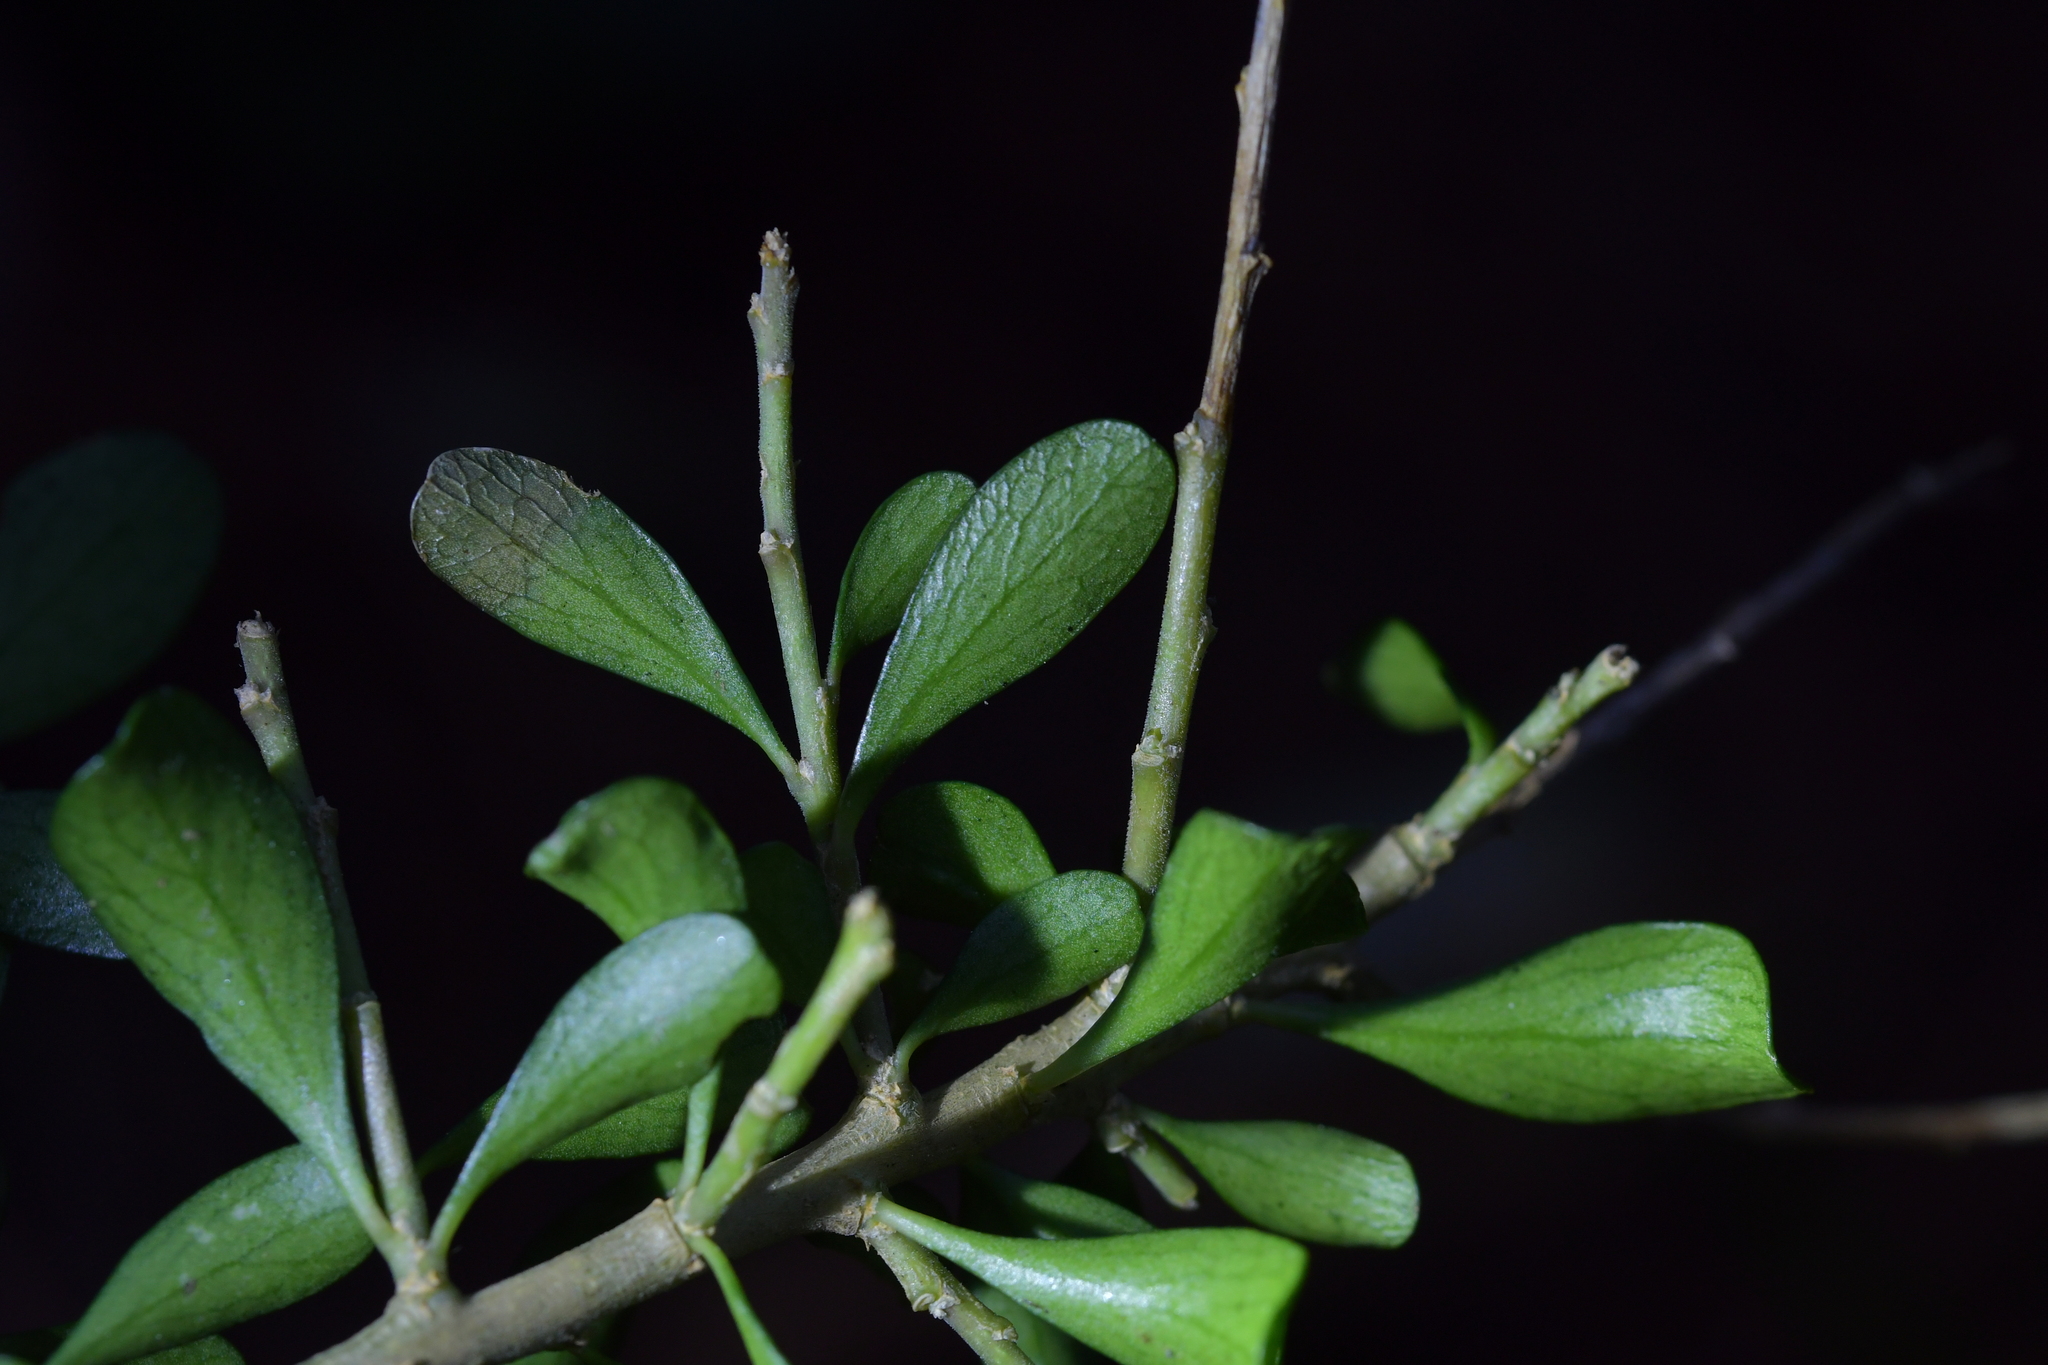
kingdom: Plantae
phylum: Tracheophyta
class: Magnoliopsida
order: Malpighiales
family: Violaceae
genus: Melicytus
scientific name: Melicytus orarius
